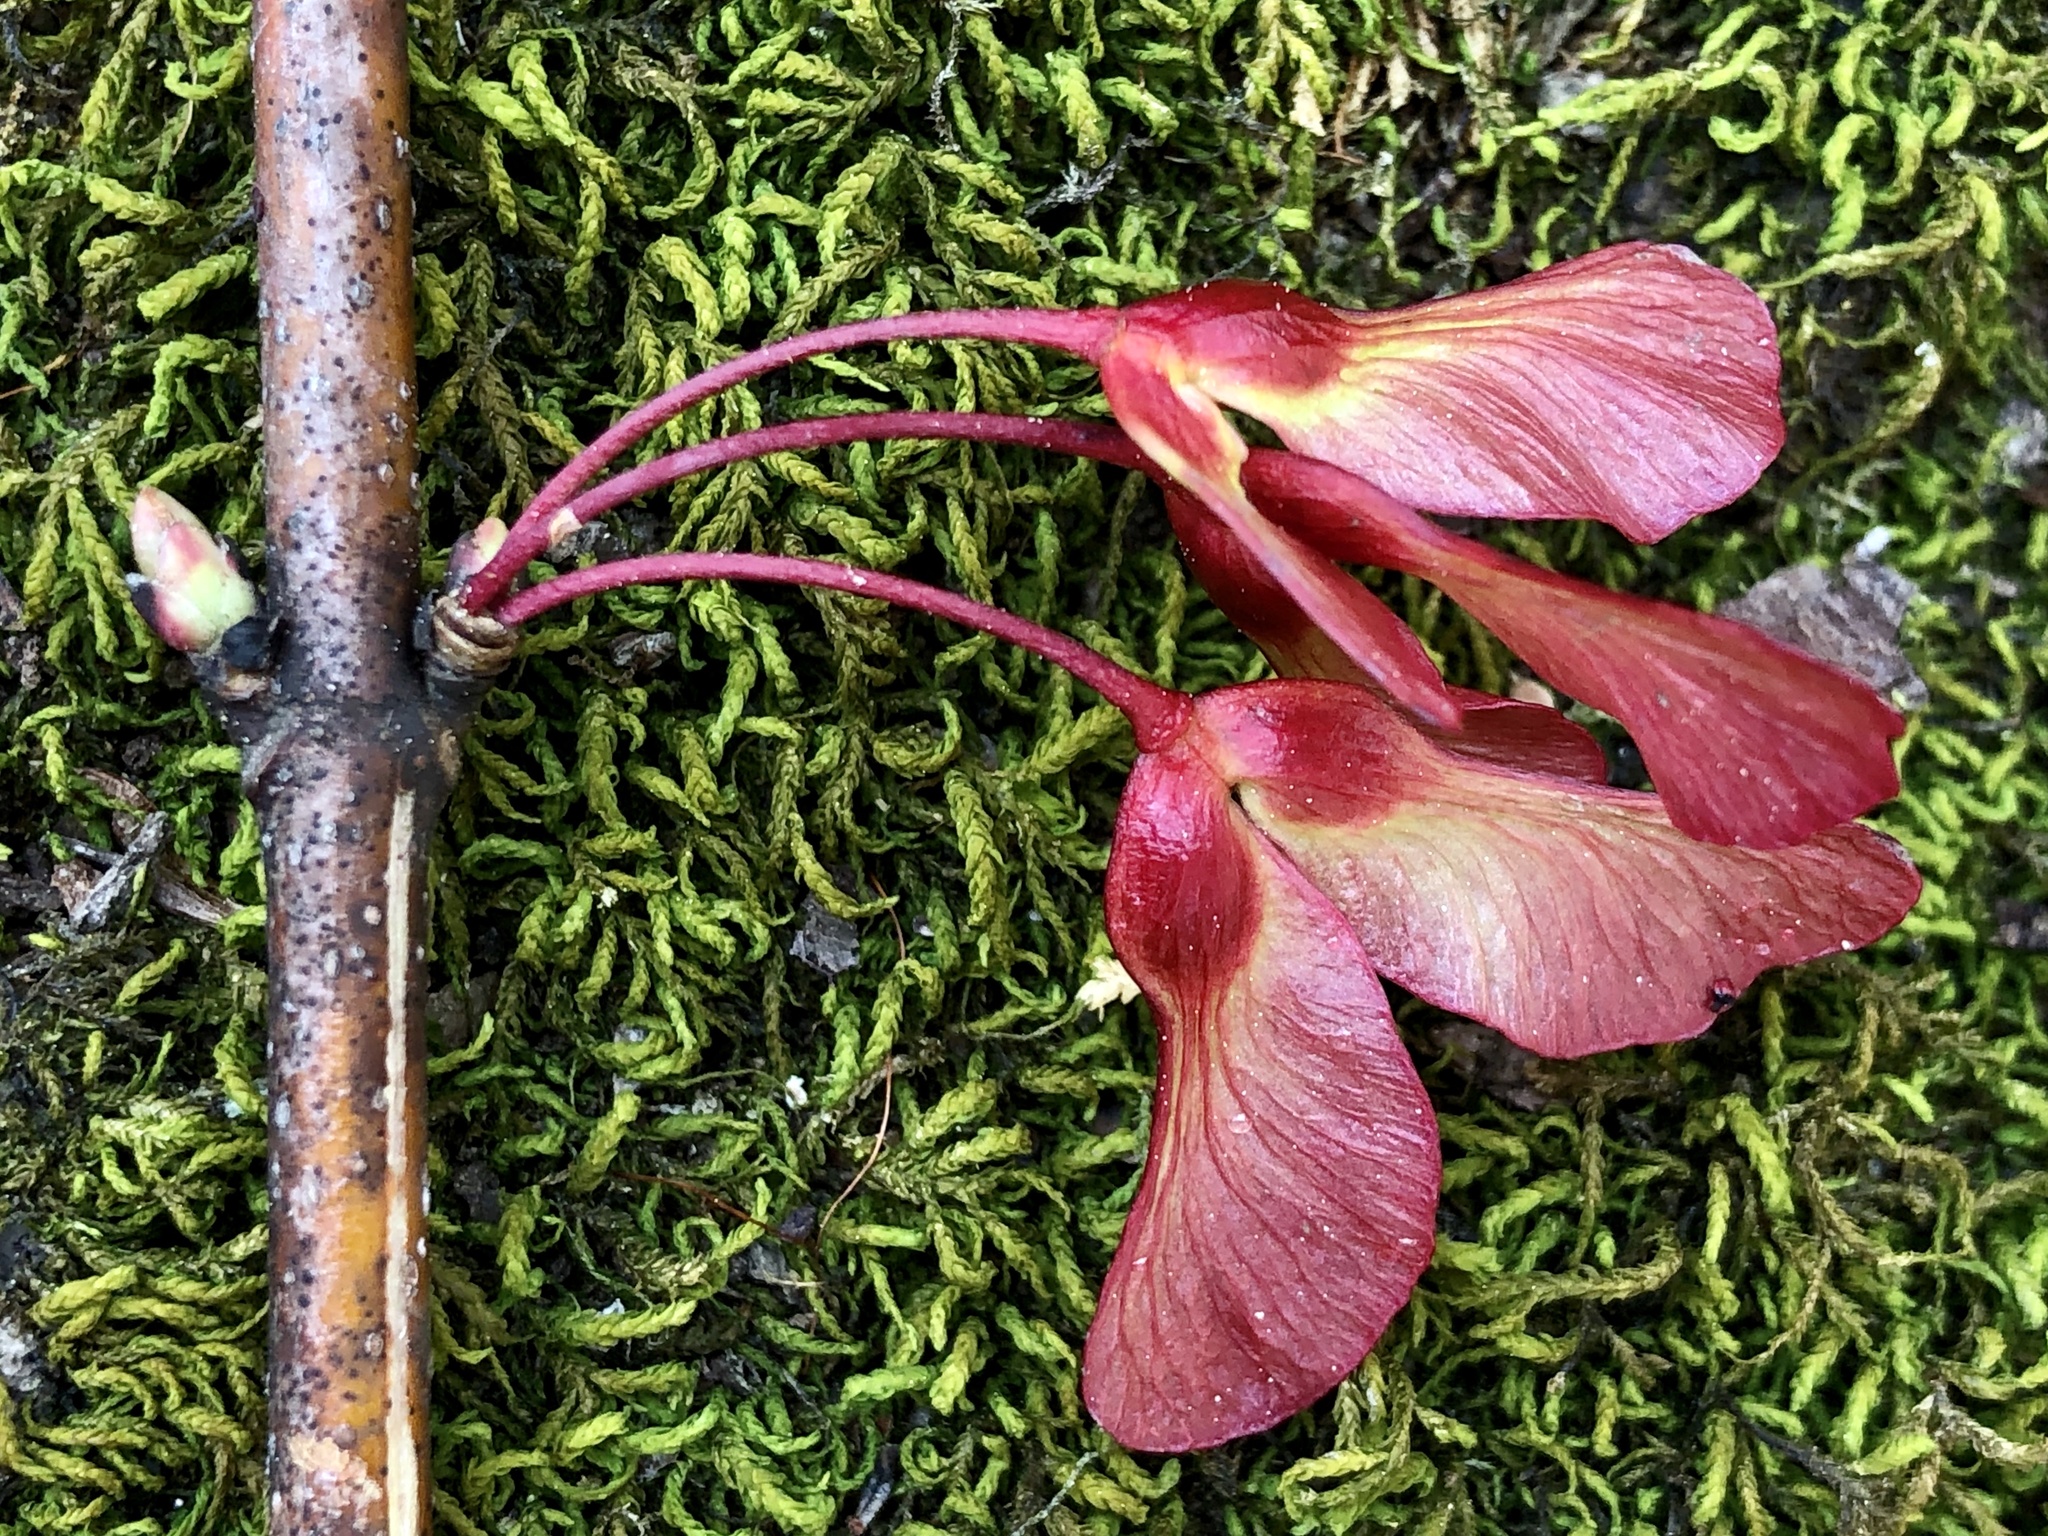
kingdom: Plantae
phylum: Tracheophyta
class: Magnoliopsida
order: Sapindales
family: Sapindaceae
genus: Acer
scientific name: Acer rubrum
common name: Red maple
